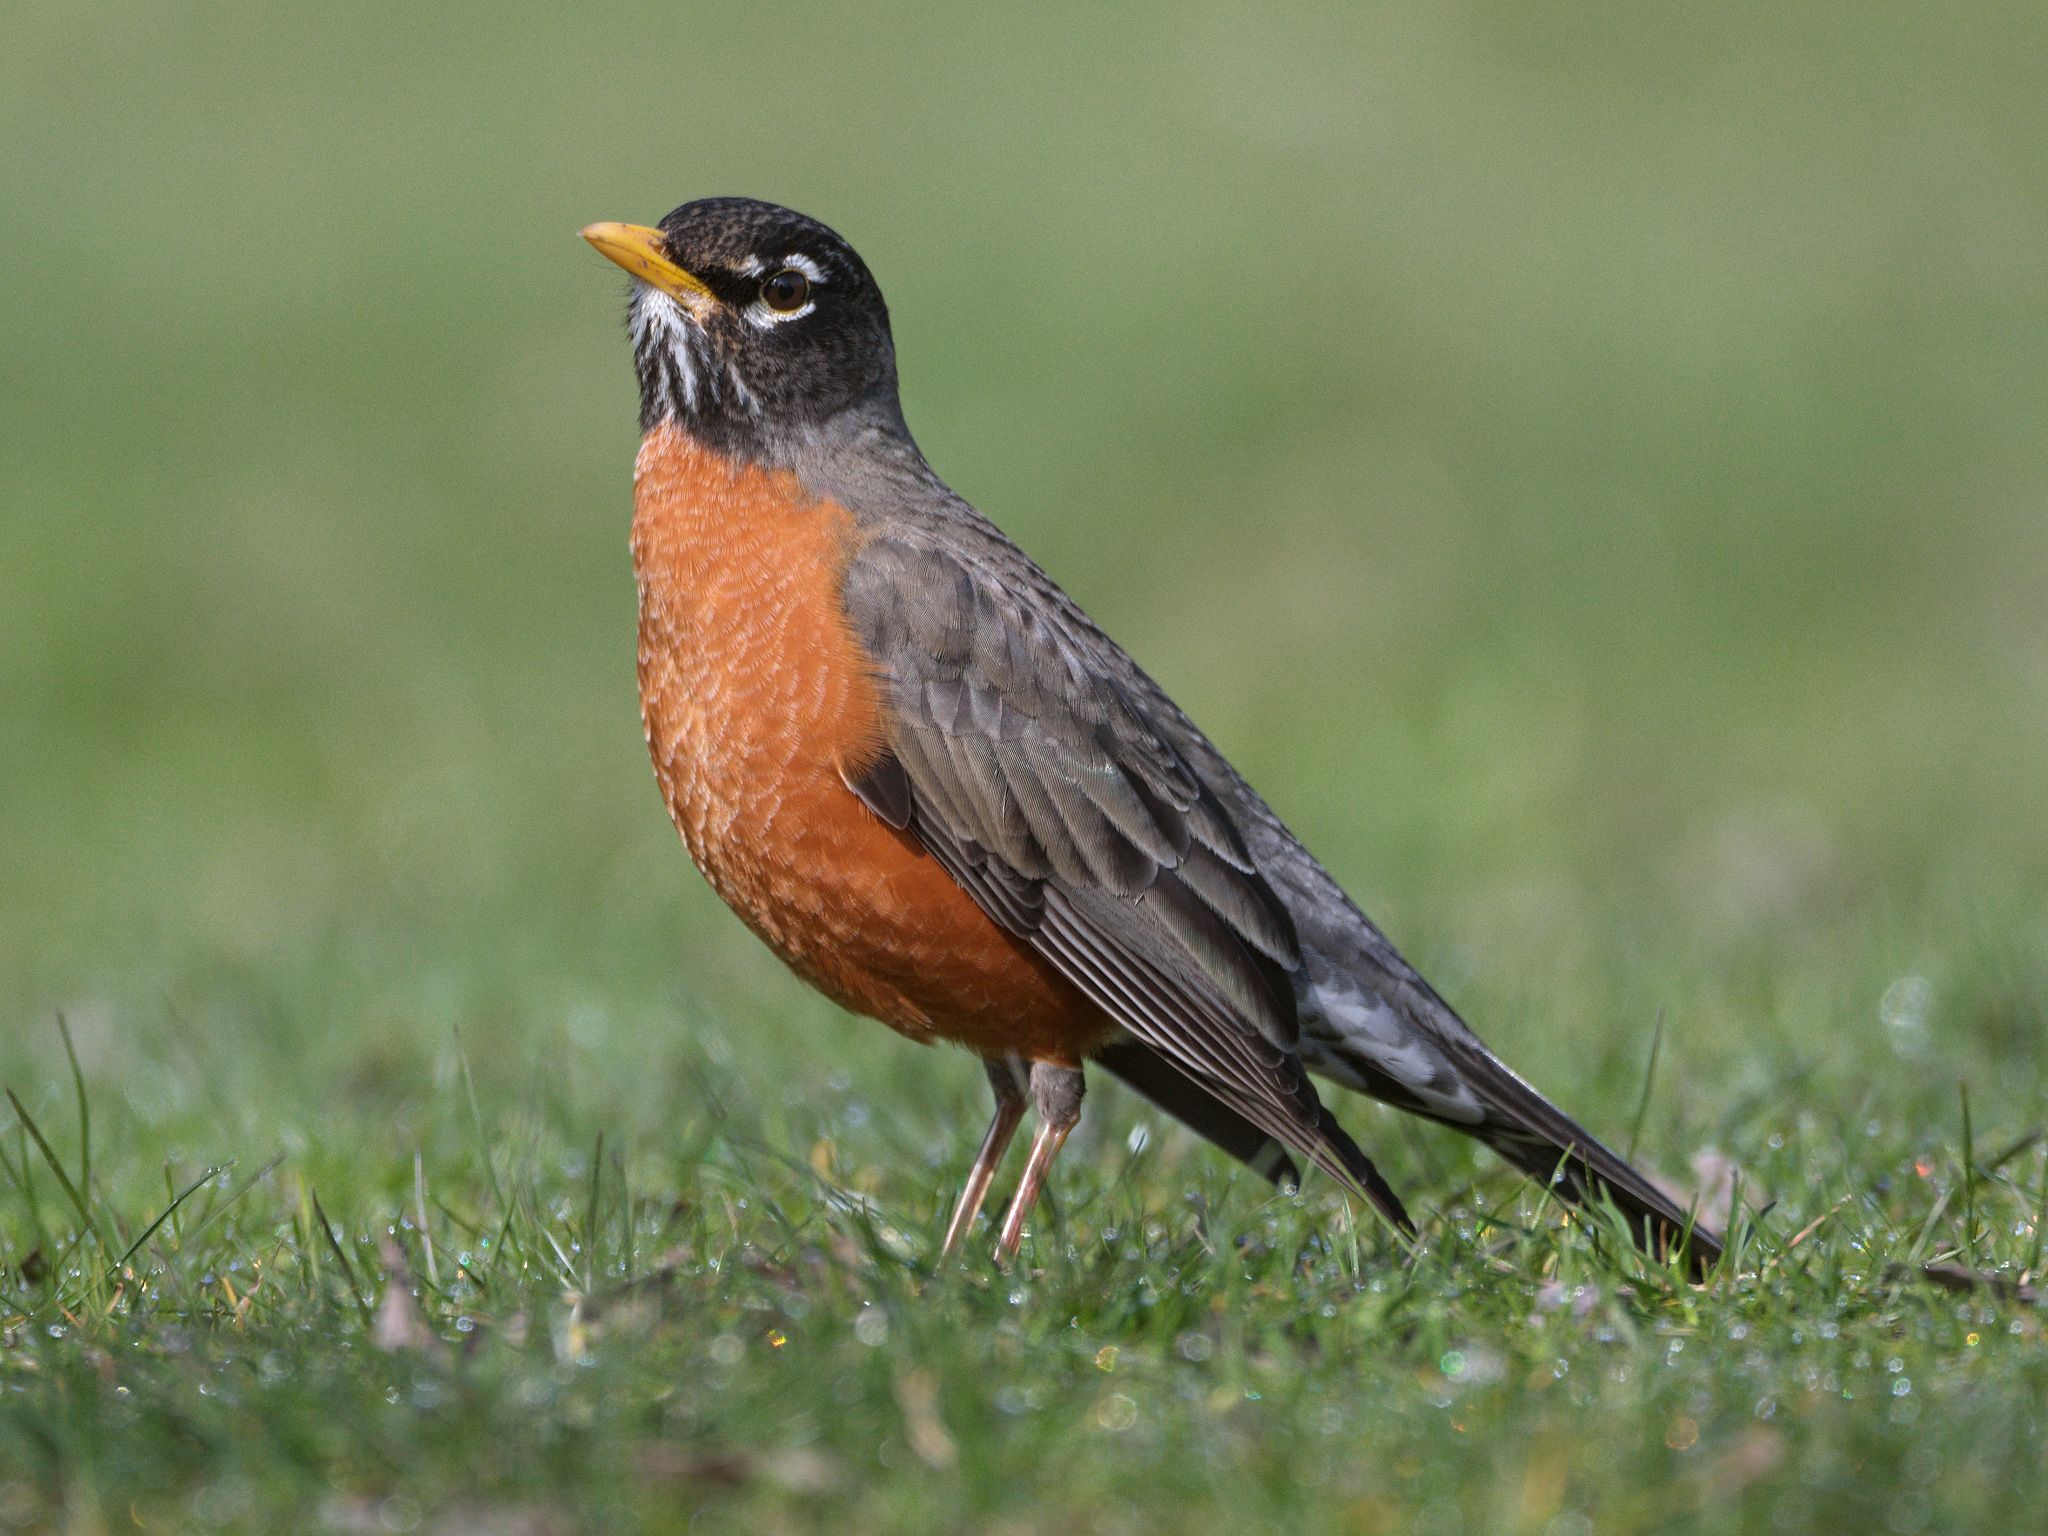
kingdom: Animalia
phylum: Chordata
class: Aves
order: Passeriformes
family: Turdidae
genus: Turdus
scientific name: Turdus migratorius
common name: American robin
